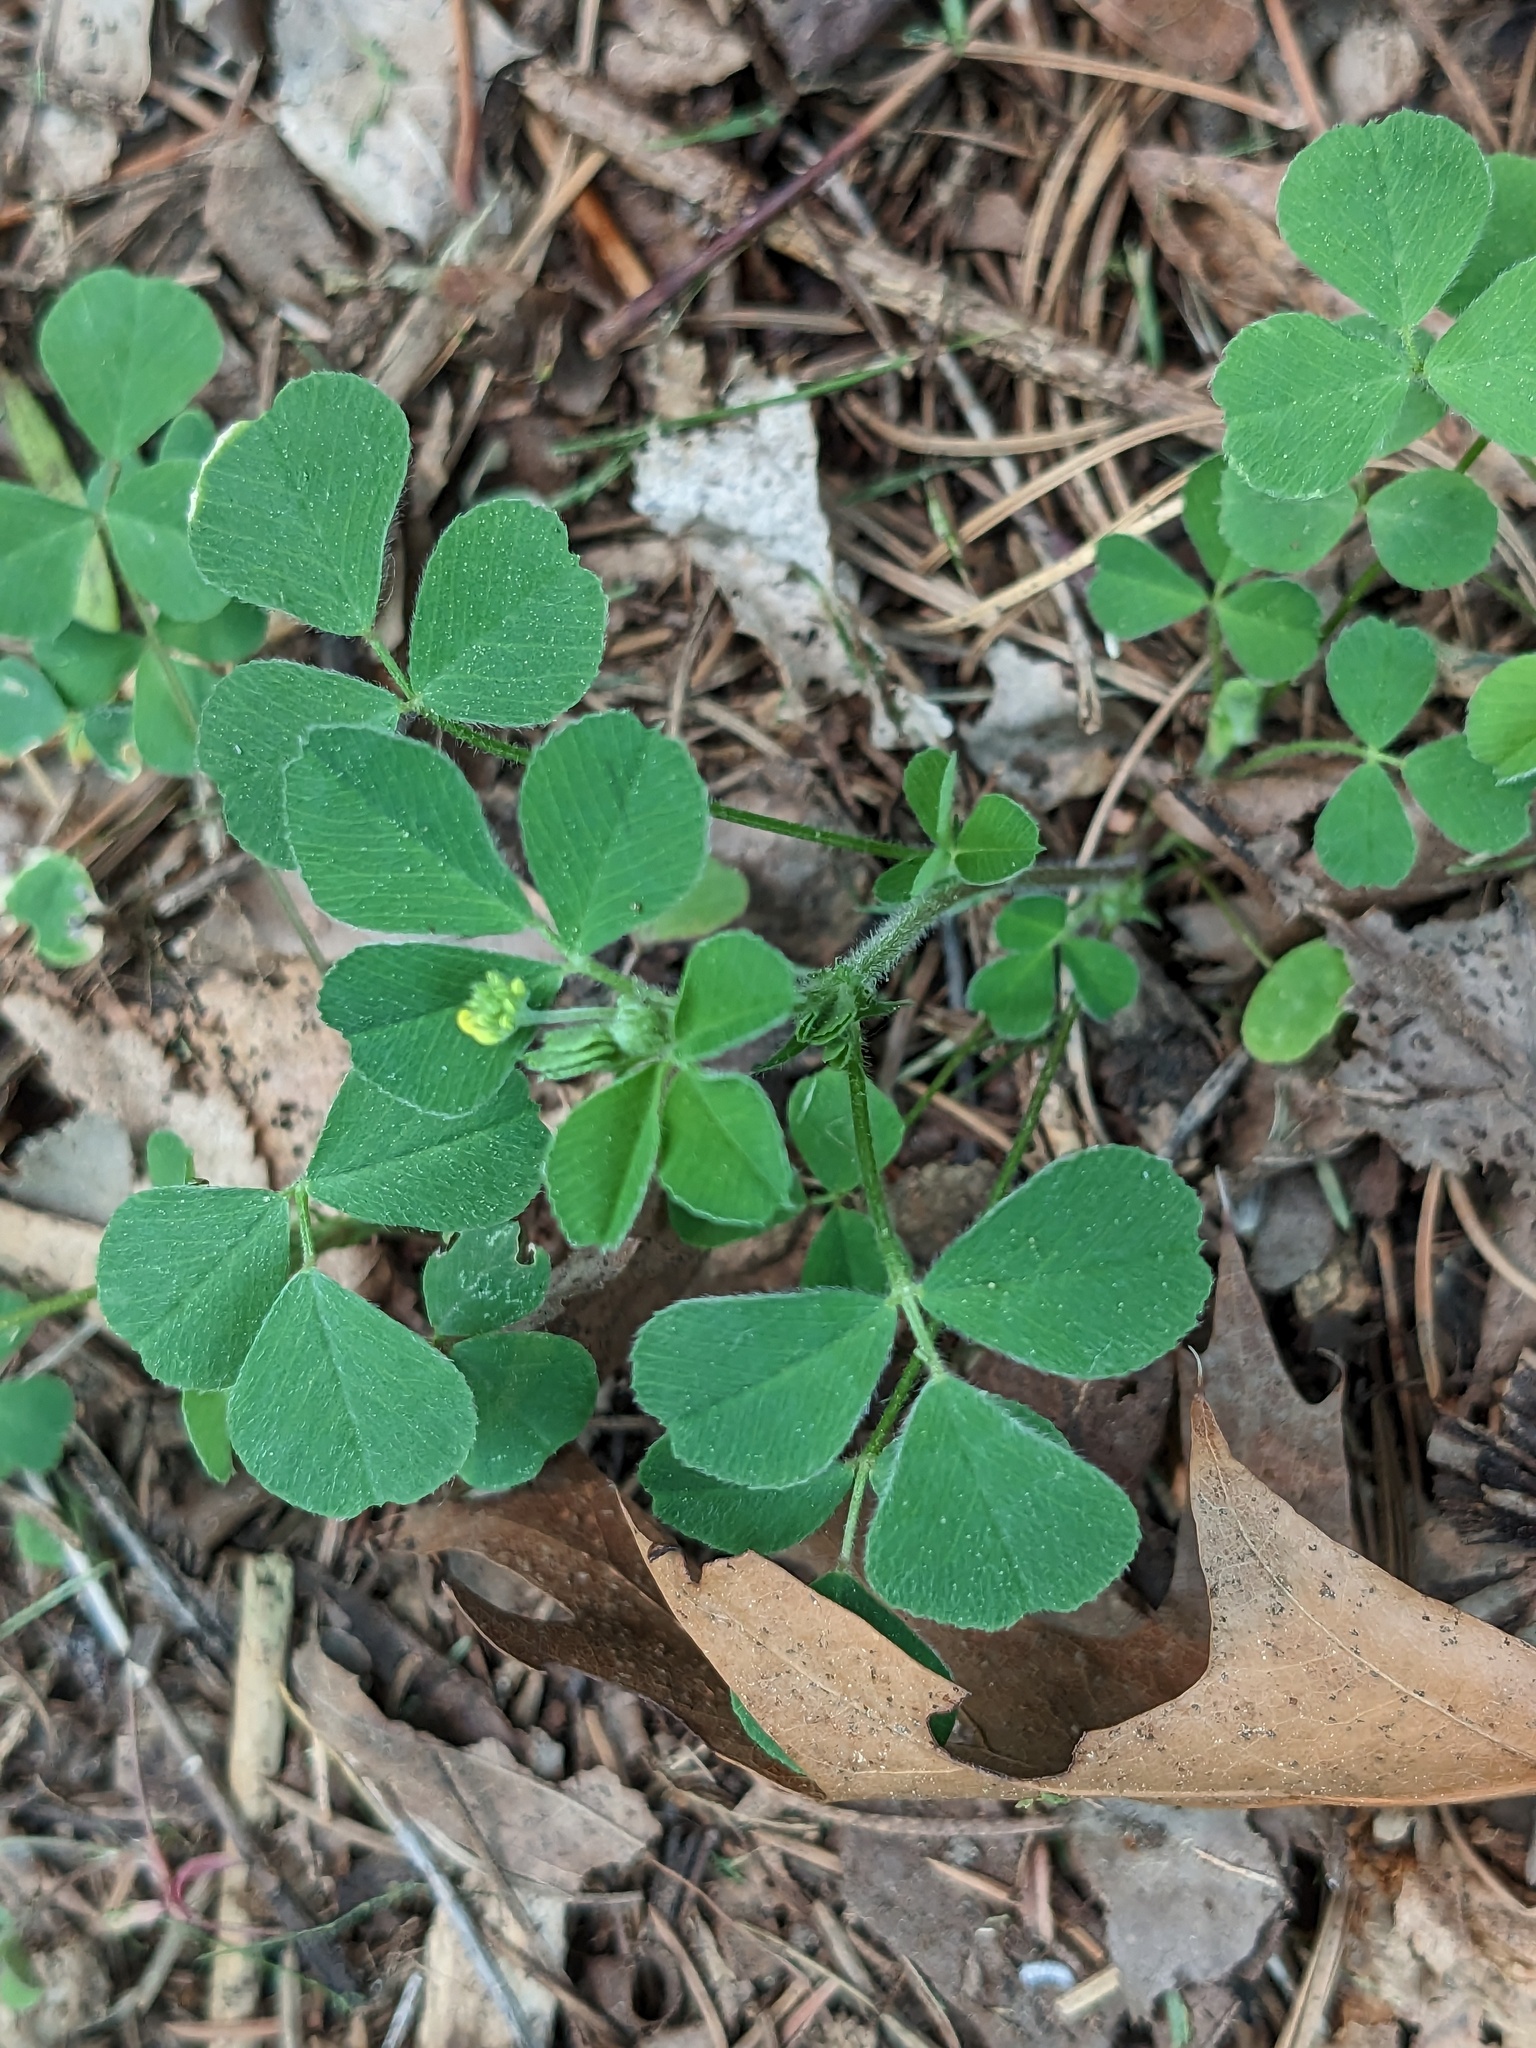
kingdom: Plantae
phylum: Tracheophyta
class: Magnoliopsida
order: Fabales
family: Fabaceae
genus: Medicago
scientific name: Medicago lupulina
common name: Black medick
